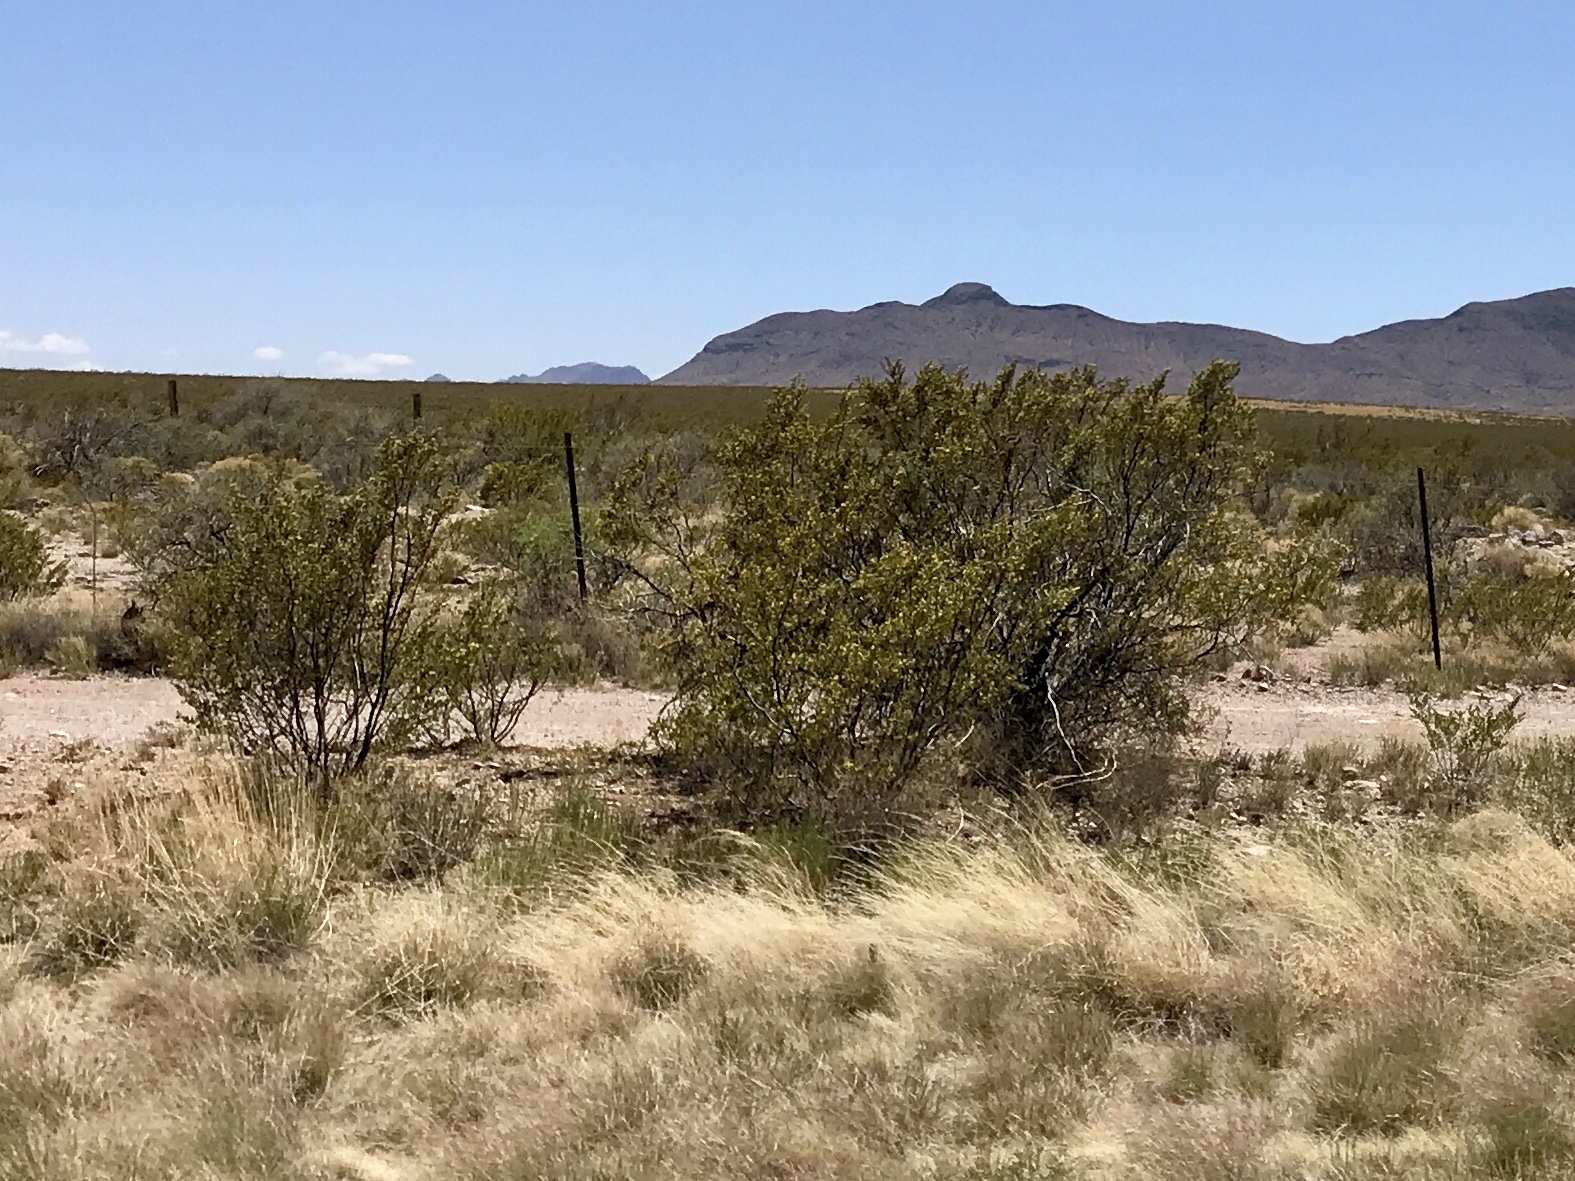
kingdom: Plantae
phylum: Tracheophyta
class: Magnoliopsida
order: Zygophyllales
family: Zygophyllaceae
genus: Larrea
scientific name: Larrea tridentata
